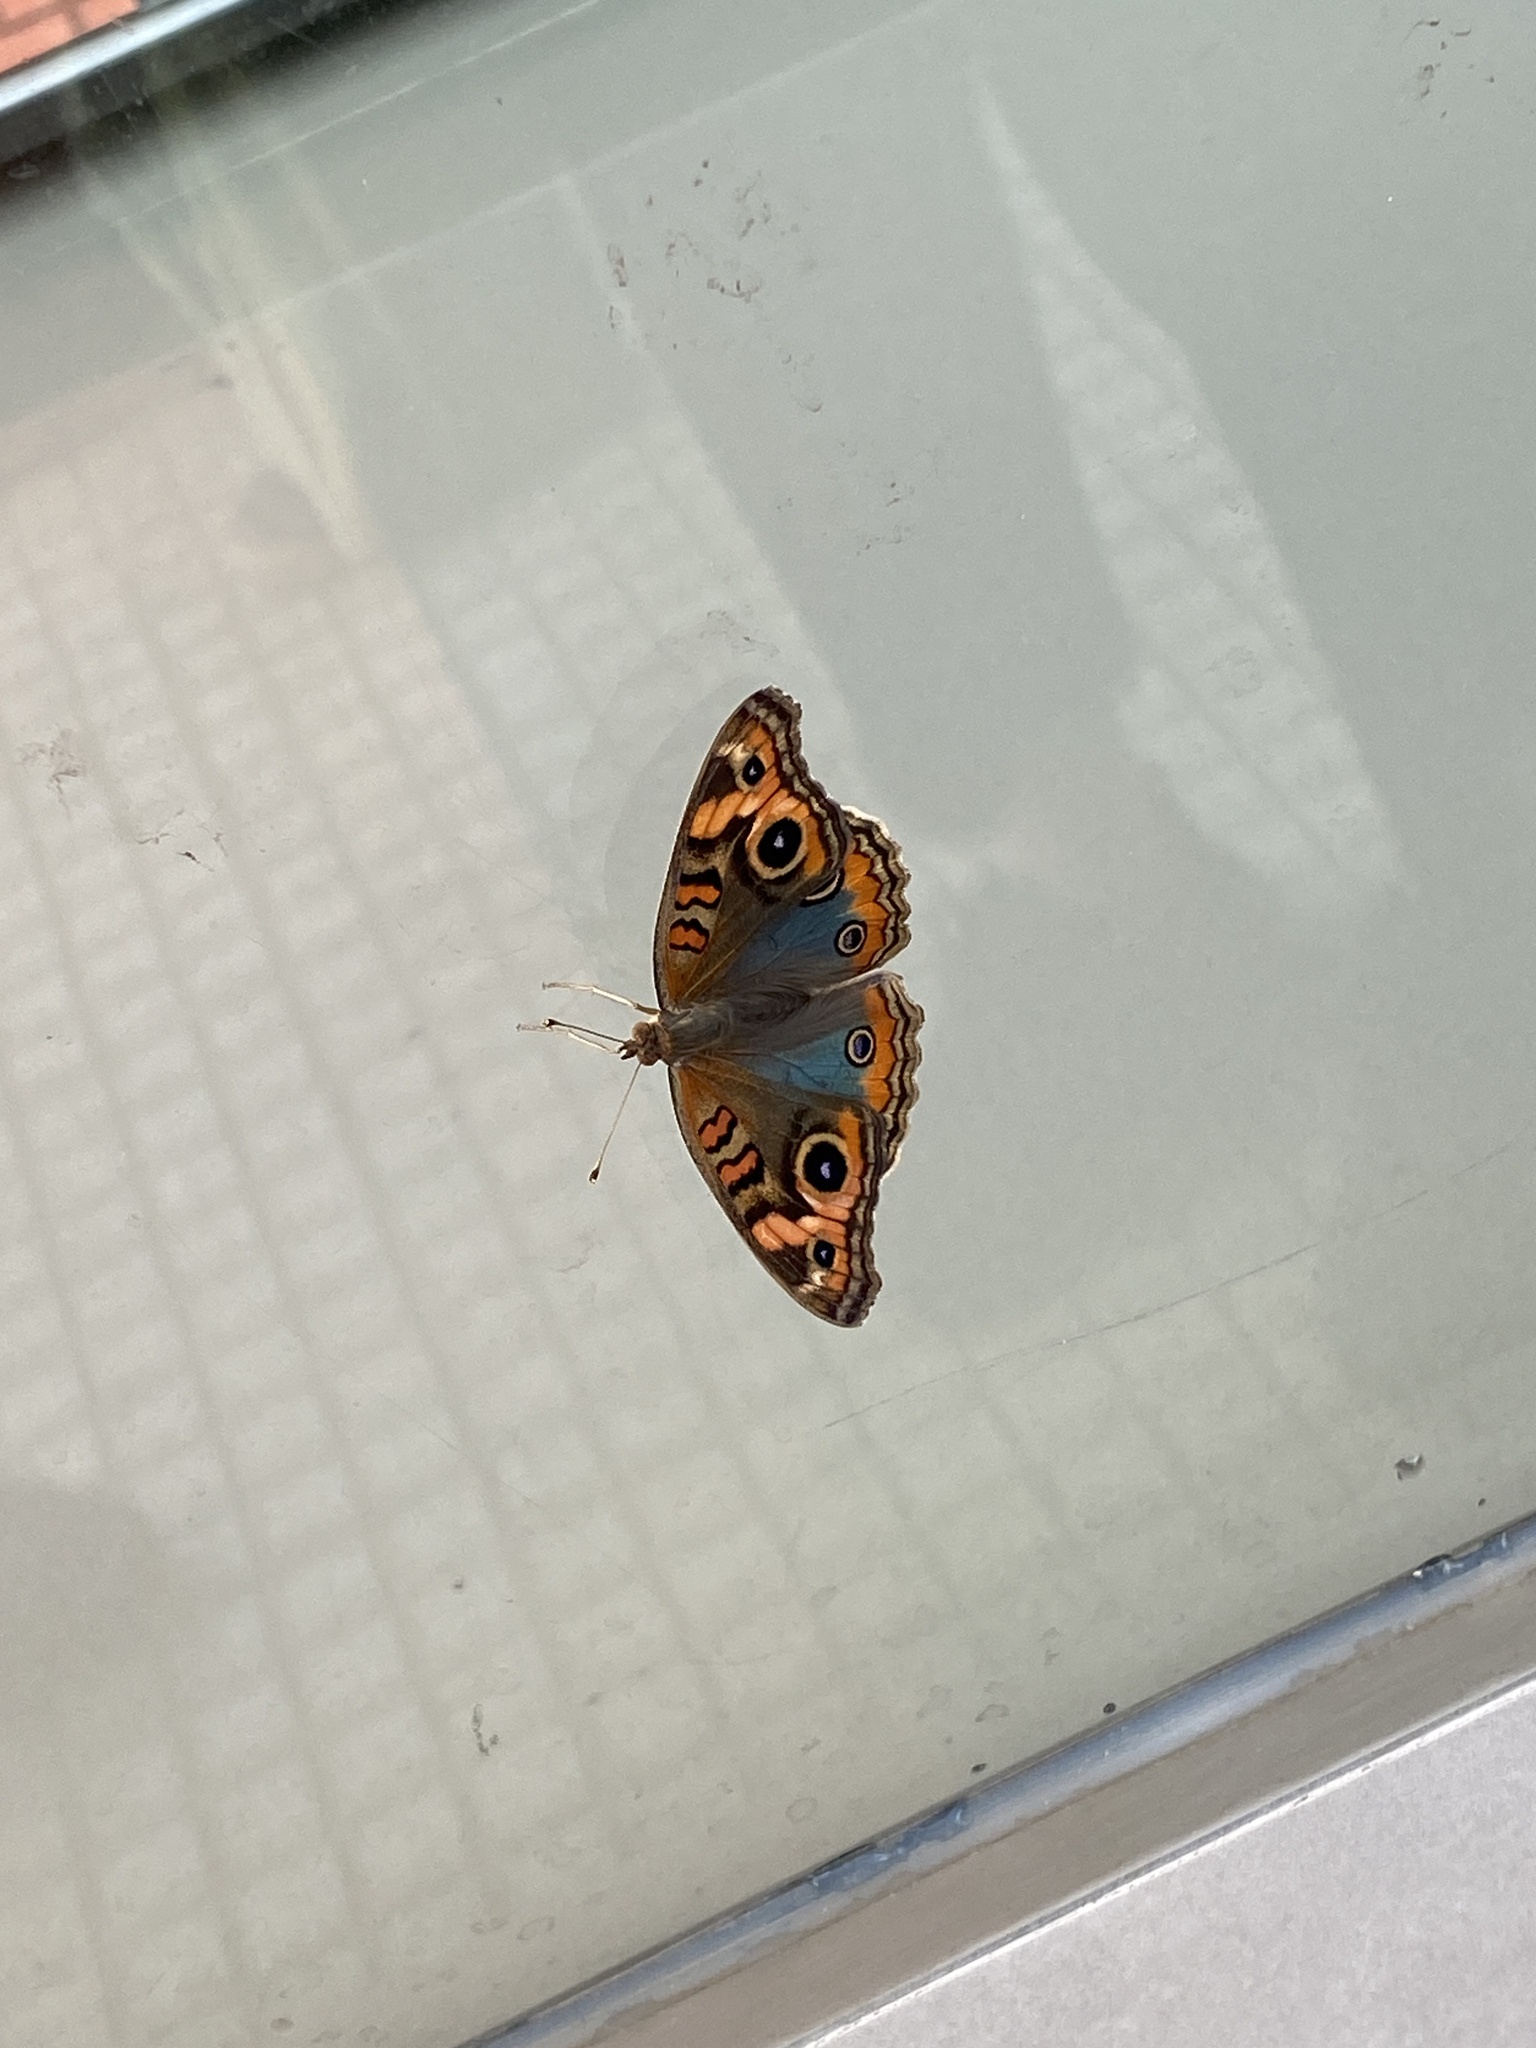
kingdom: Animalia
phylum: Arthropoda
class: Insecta
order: Lepidoptera
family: Nymphalidae
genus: Junonia
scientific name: Junonia lavinia
